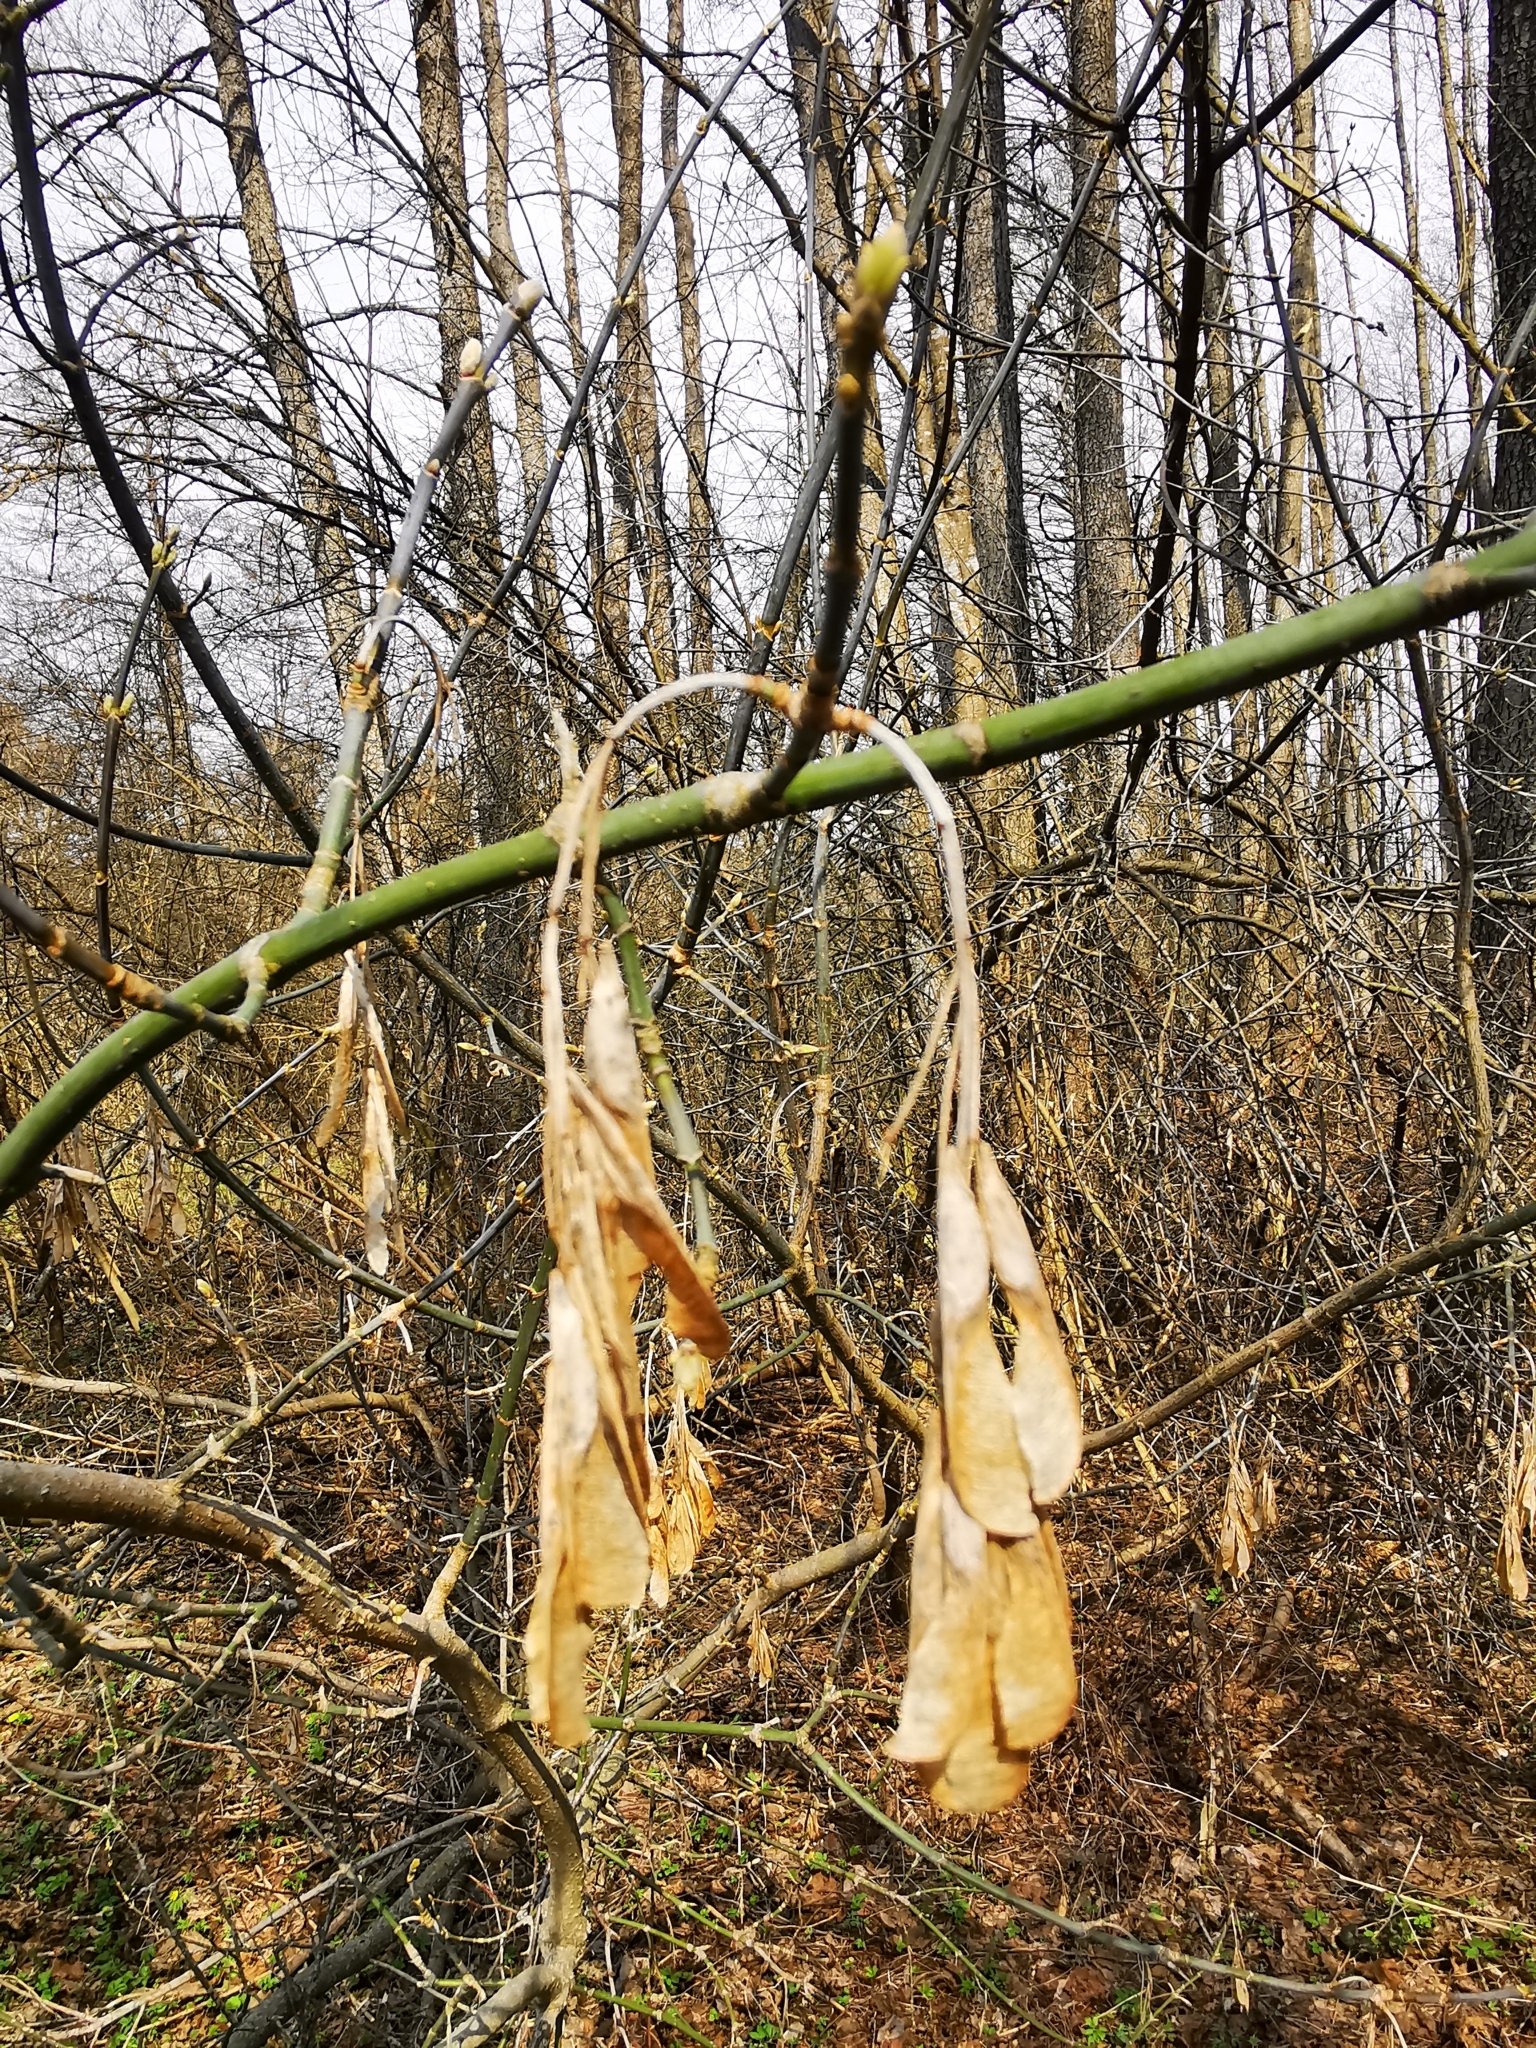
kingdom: Plantae
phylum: Tracheophyta
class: Magnoliopsida
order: Sapindales
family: Sapindaceae
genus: Acer
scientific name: Acer negundo
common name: Ashleaf maple
